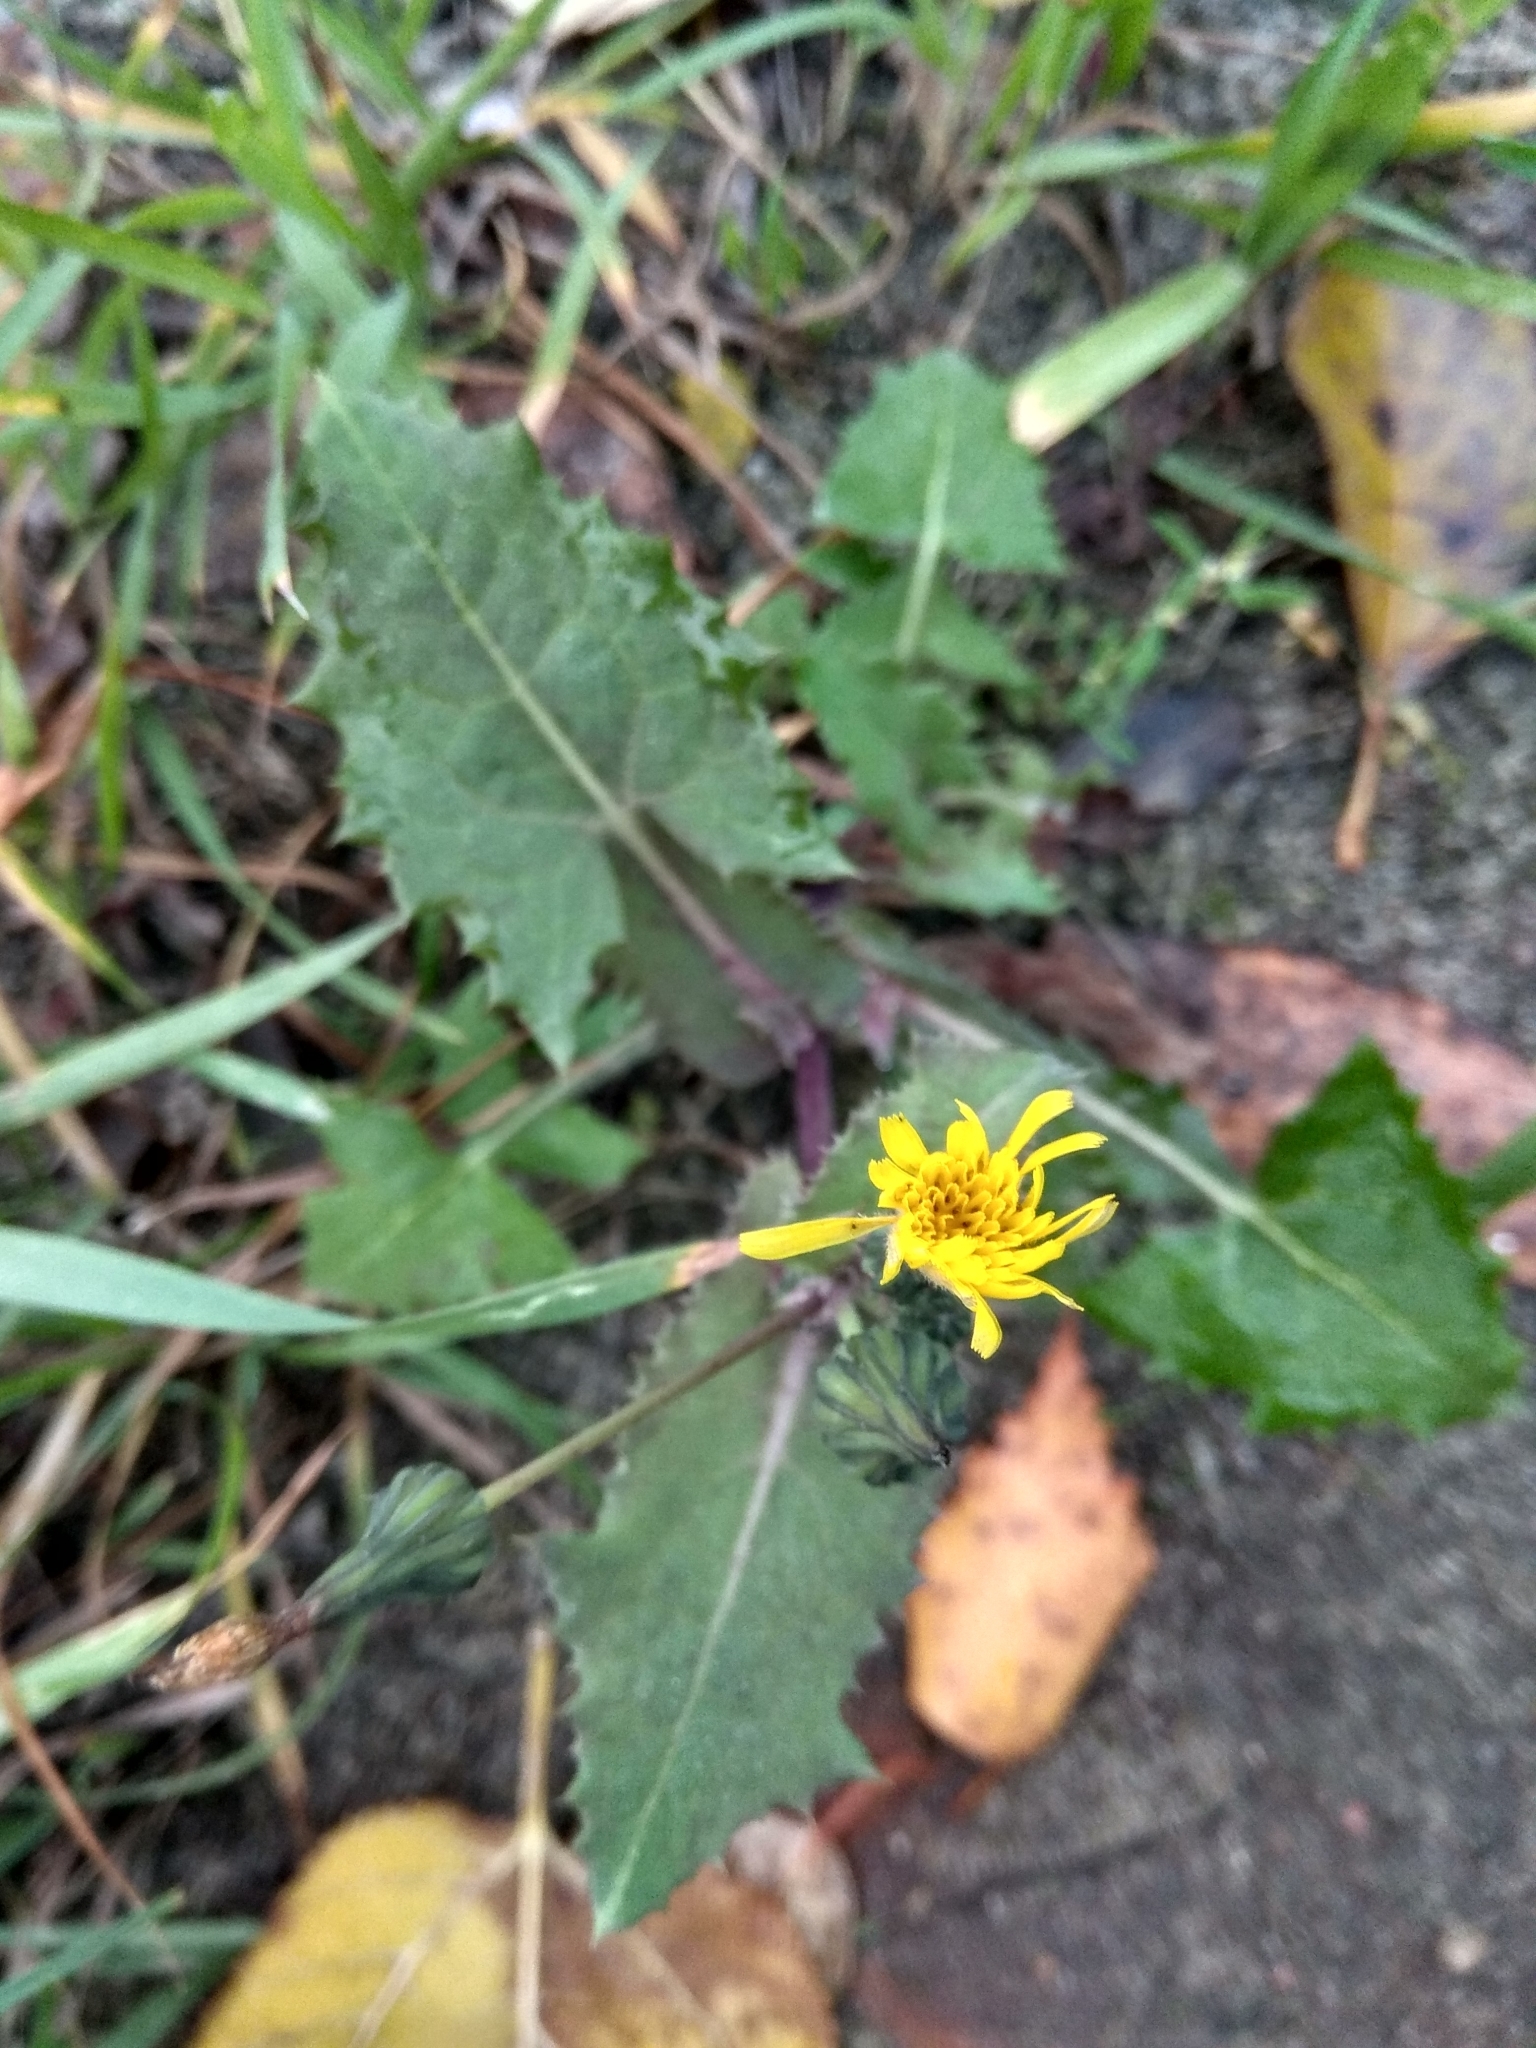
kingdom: Plantae
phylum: Tracheophyta
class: Magnoliopsida
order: Asterales
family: Asteraceae
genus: Sonchus
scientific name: Sonchus asper
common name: Prickly sow-thistle
